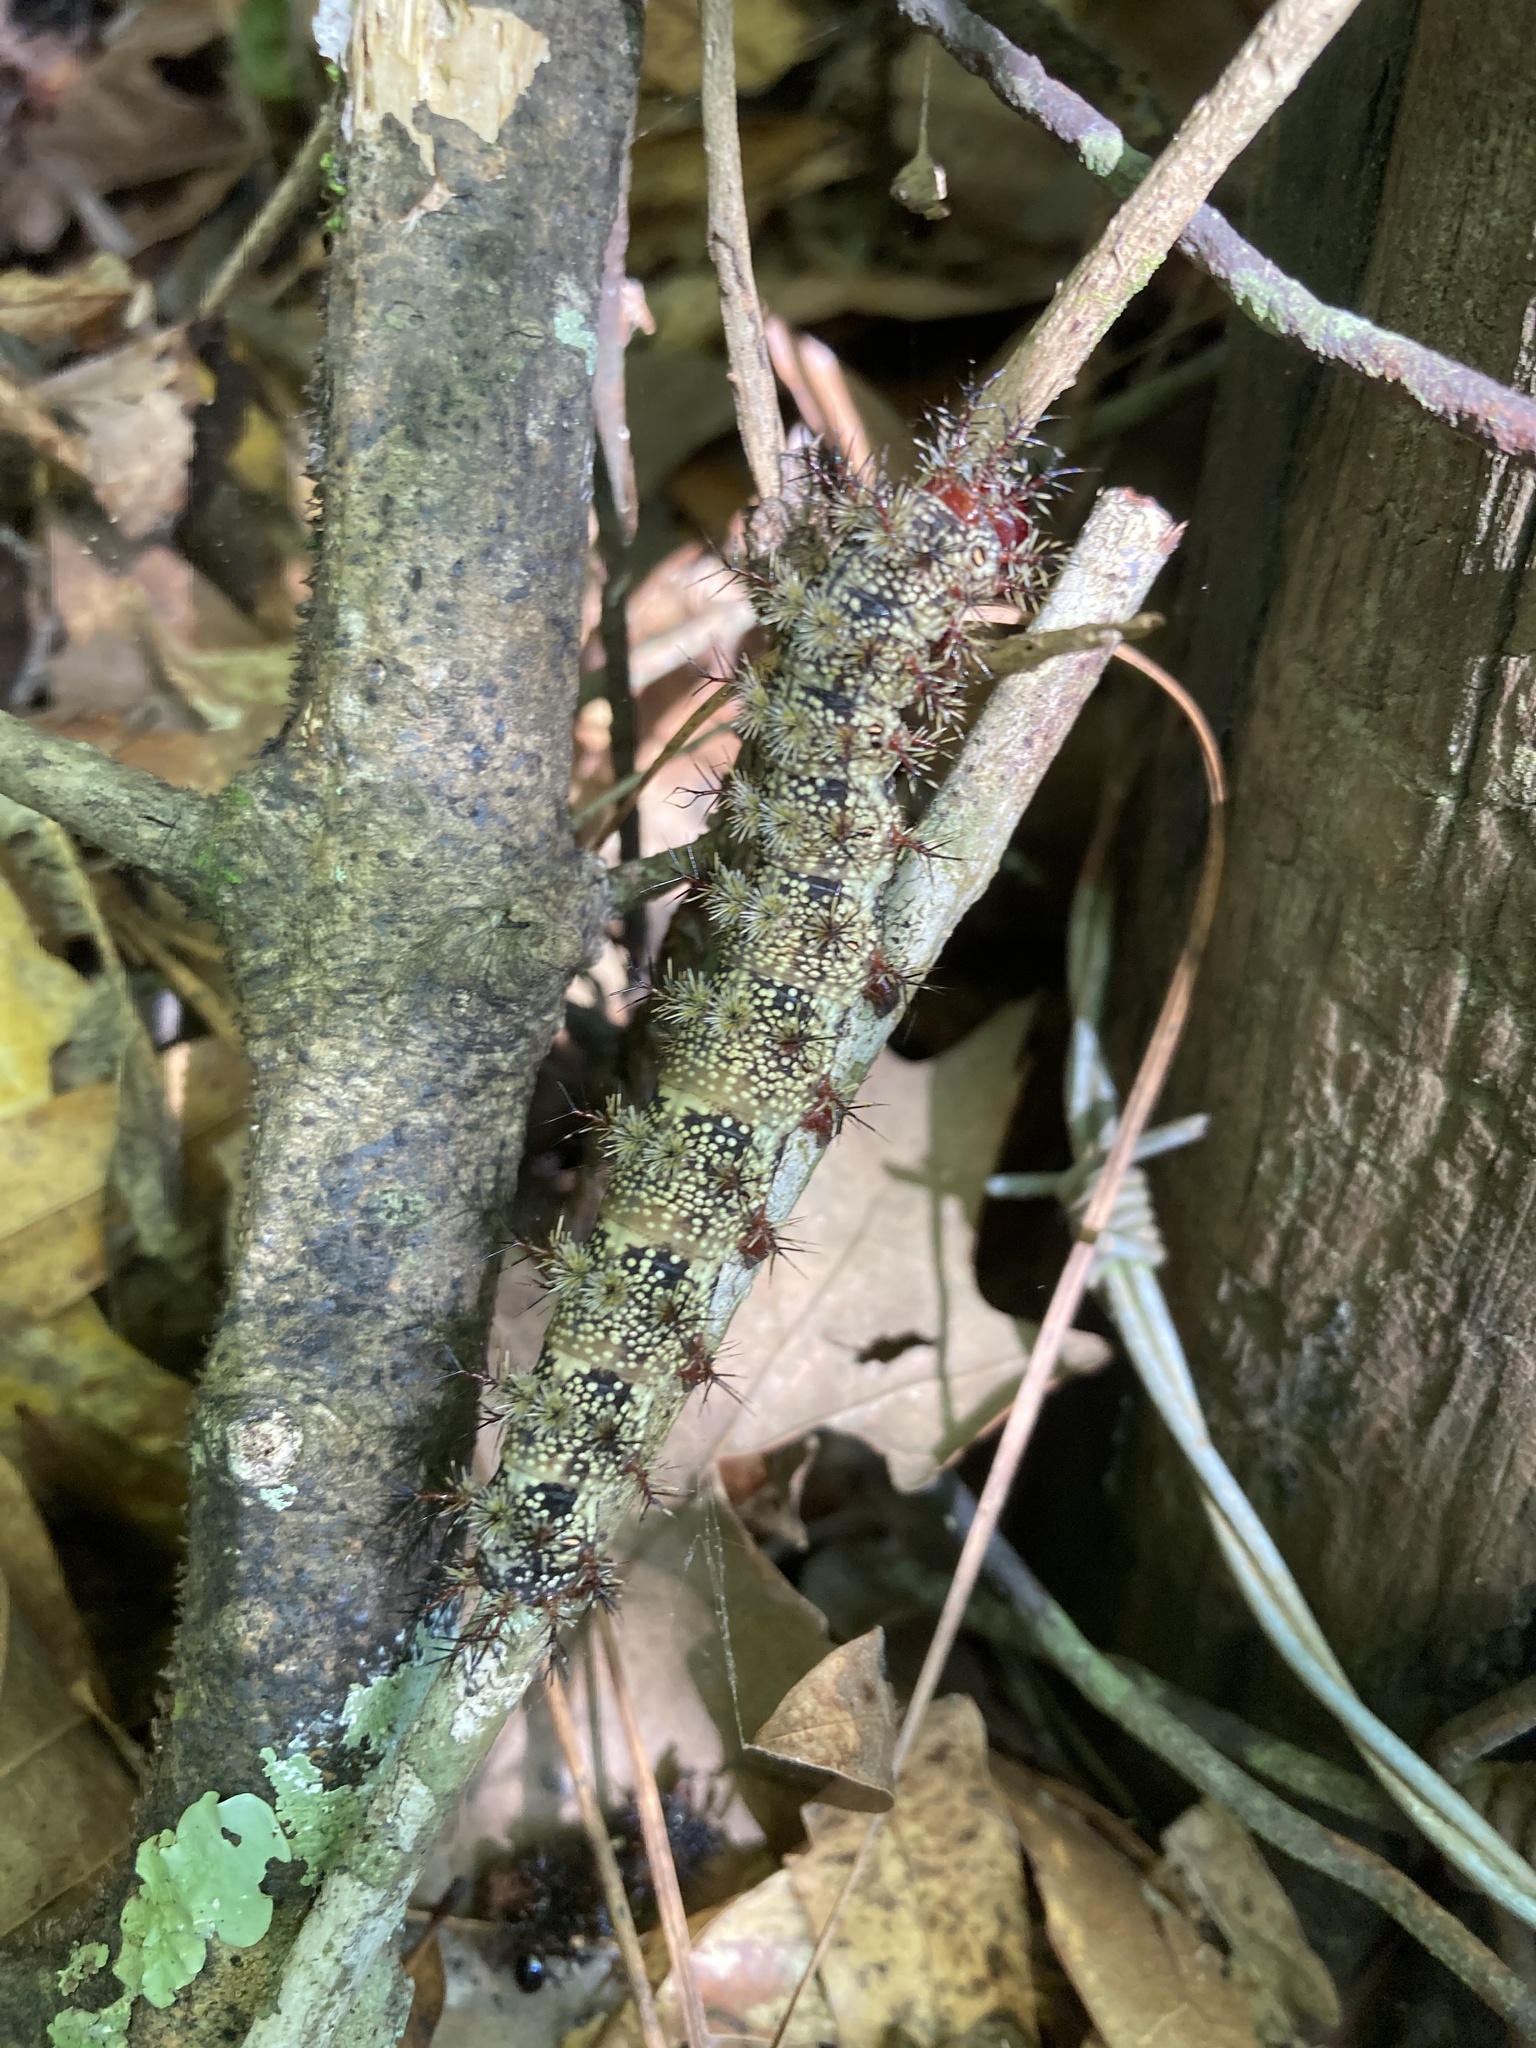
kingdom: Animalia
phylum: Arthropoda
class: Insecta
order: Lepidoptera
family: Saturniidae
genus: Hemileuca
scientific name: Hemileuca maia
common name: Eastern buckmoth
